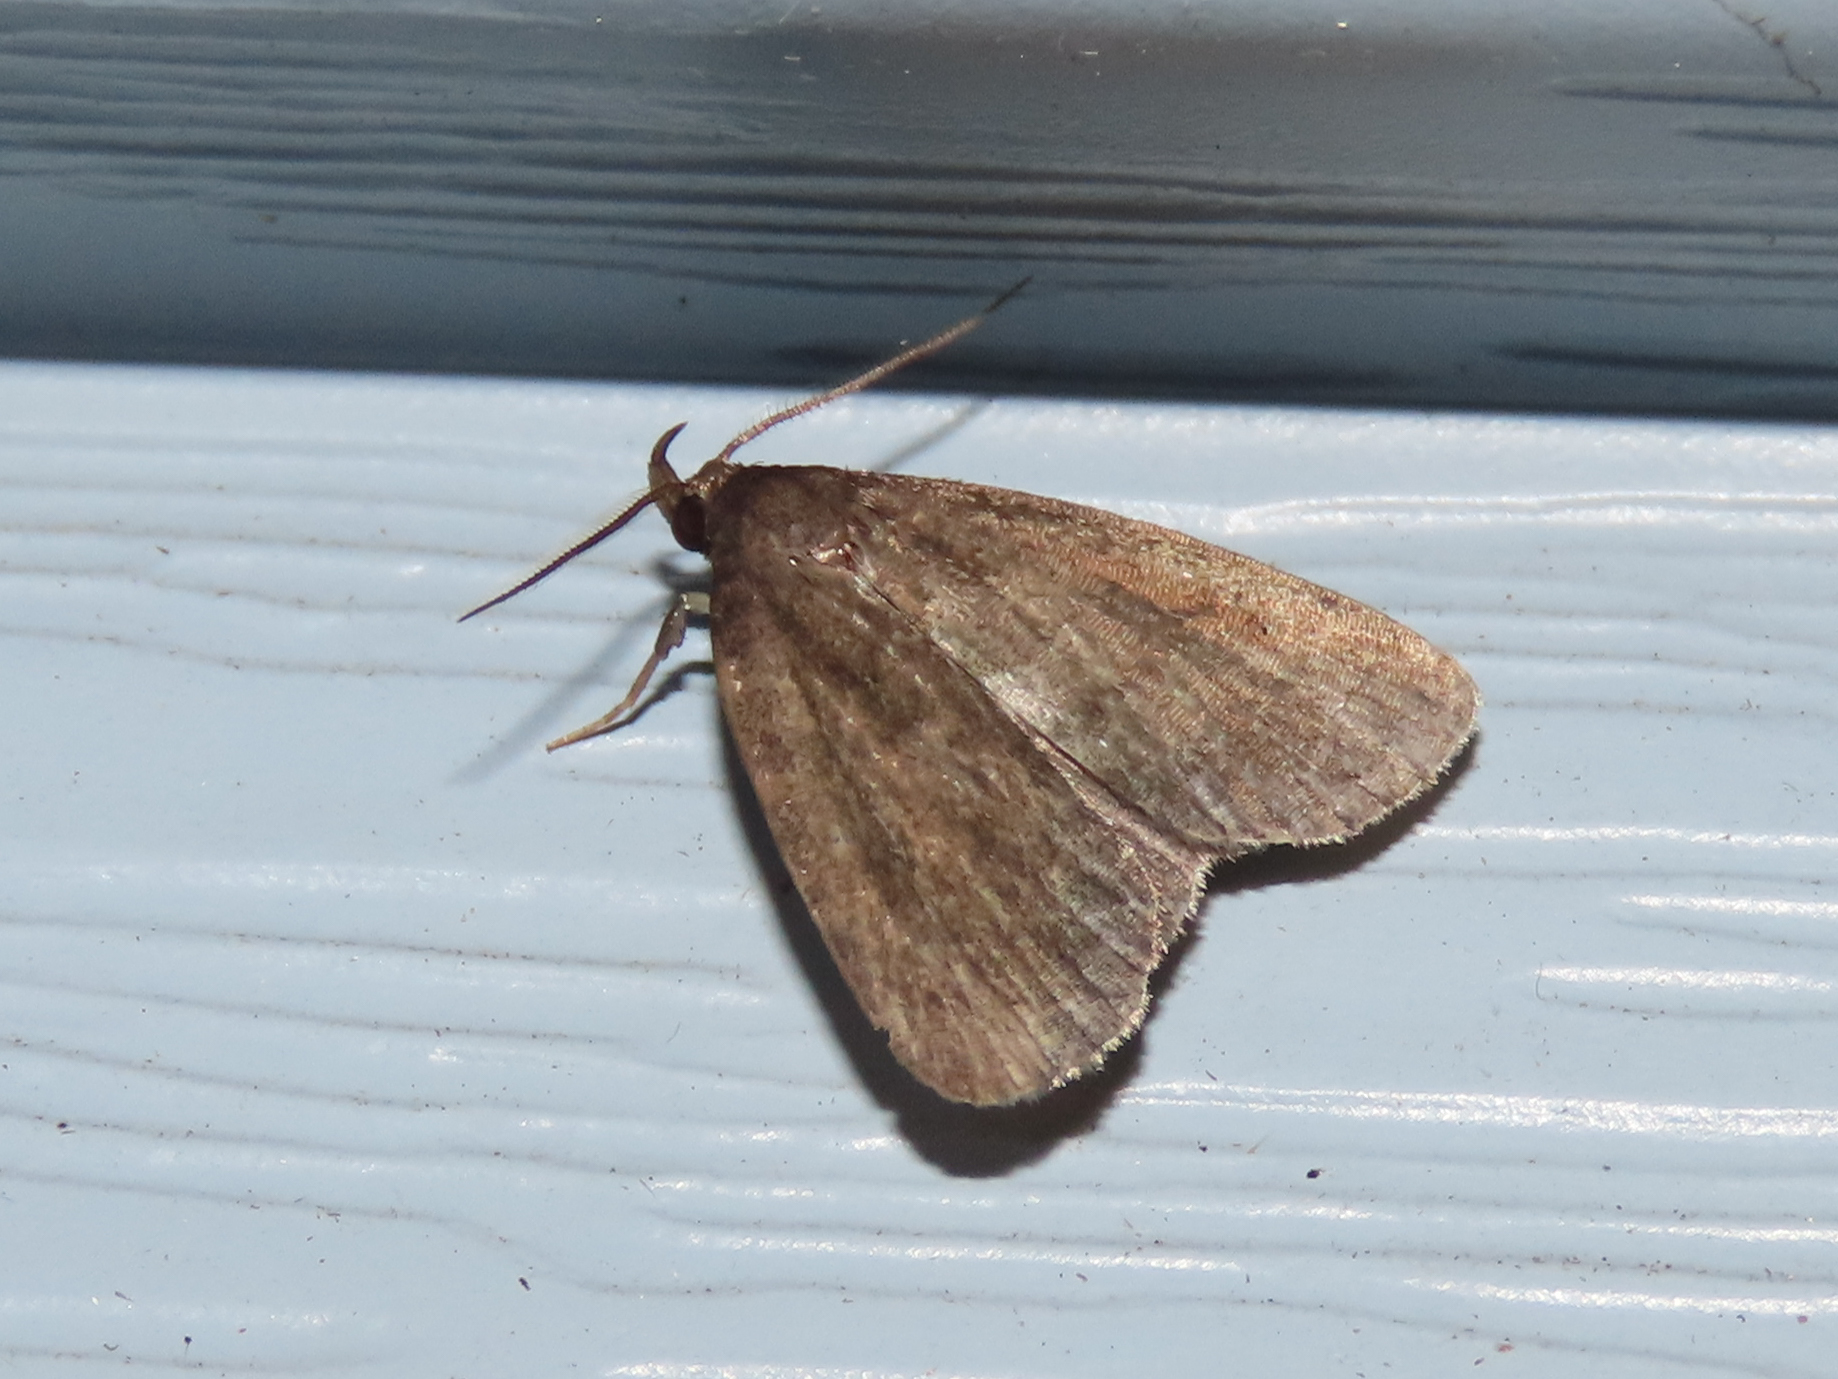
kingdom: Animalia
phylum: Arthropoda
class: Insecta
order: Lepidoptera
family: Erebidae
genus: Idia
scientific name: Idia rotundalis
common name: Rotund idia moth
